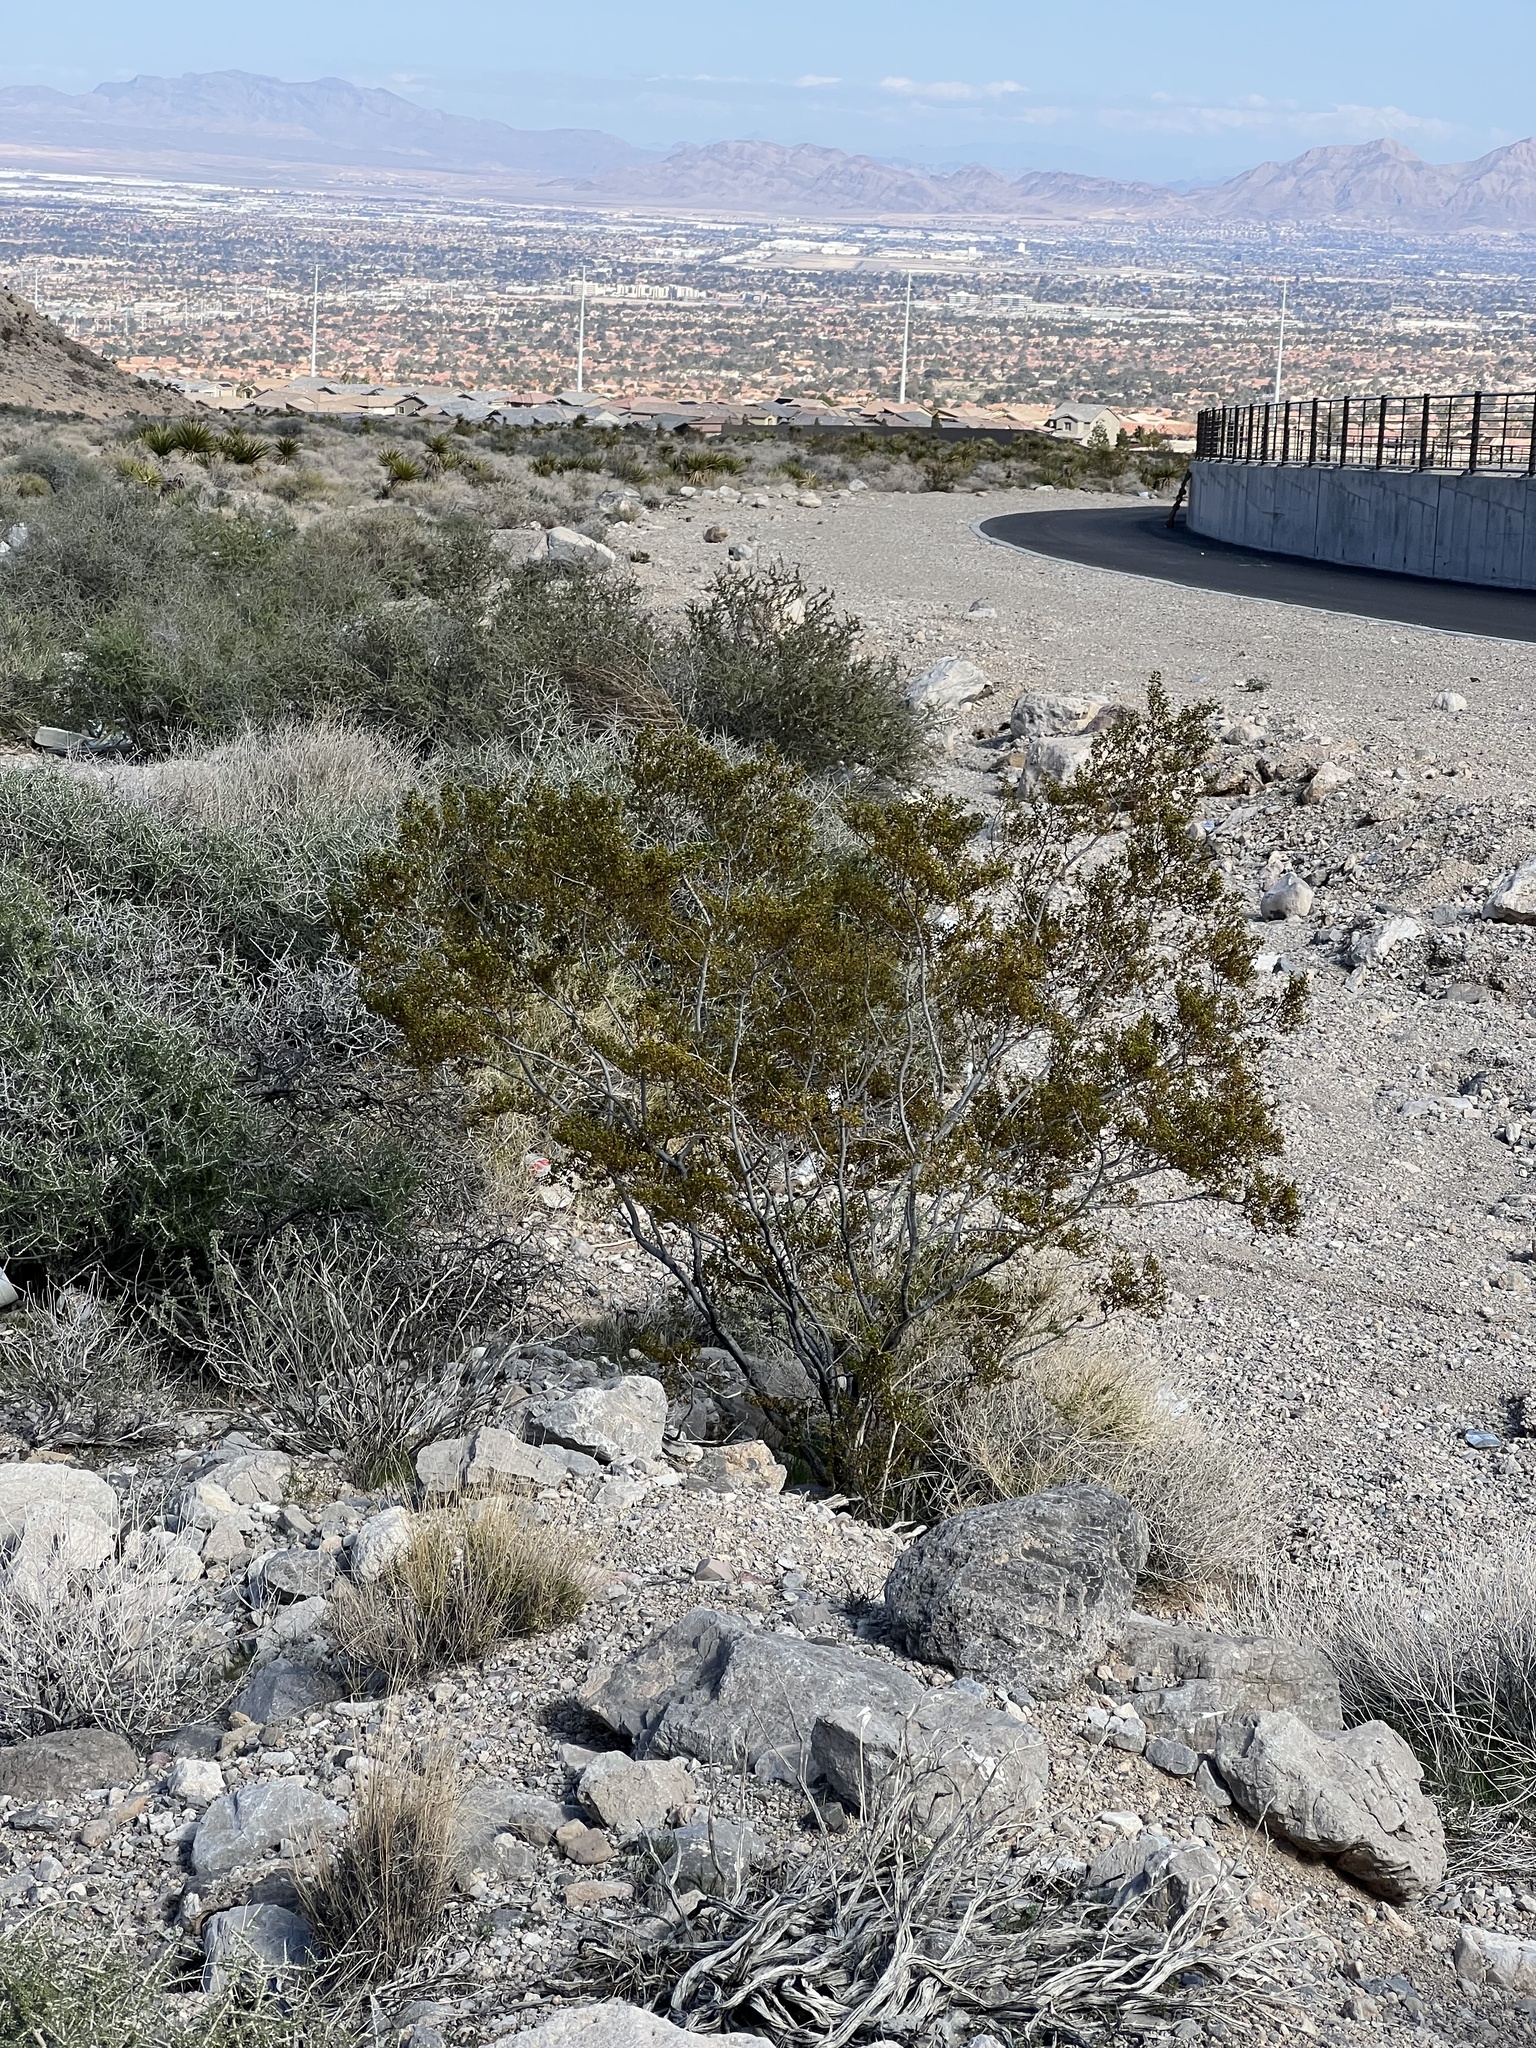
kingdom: Plantae
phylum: Tracheophyta
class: Magnoliopsida
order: Zygophyllales
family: Zygophyllaceae
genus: Larrea
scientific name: Larrea tridentata
